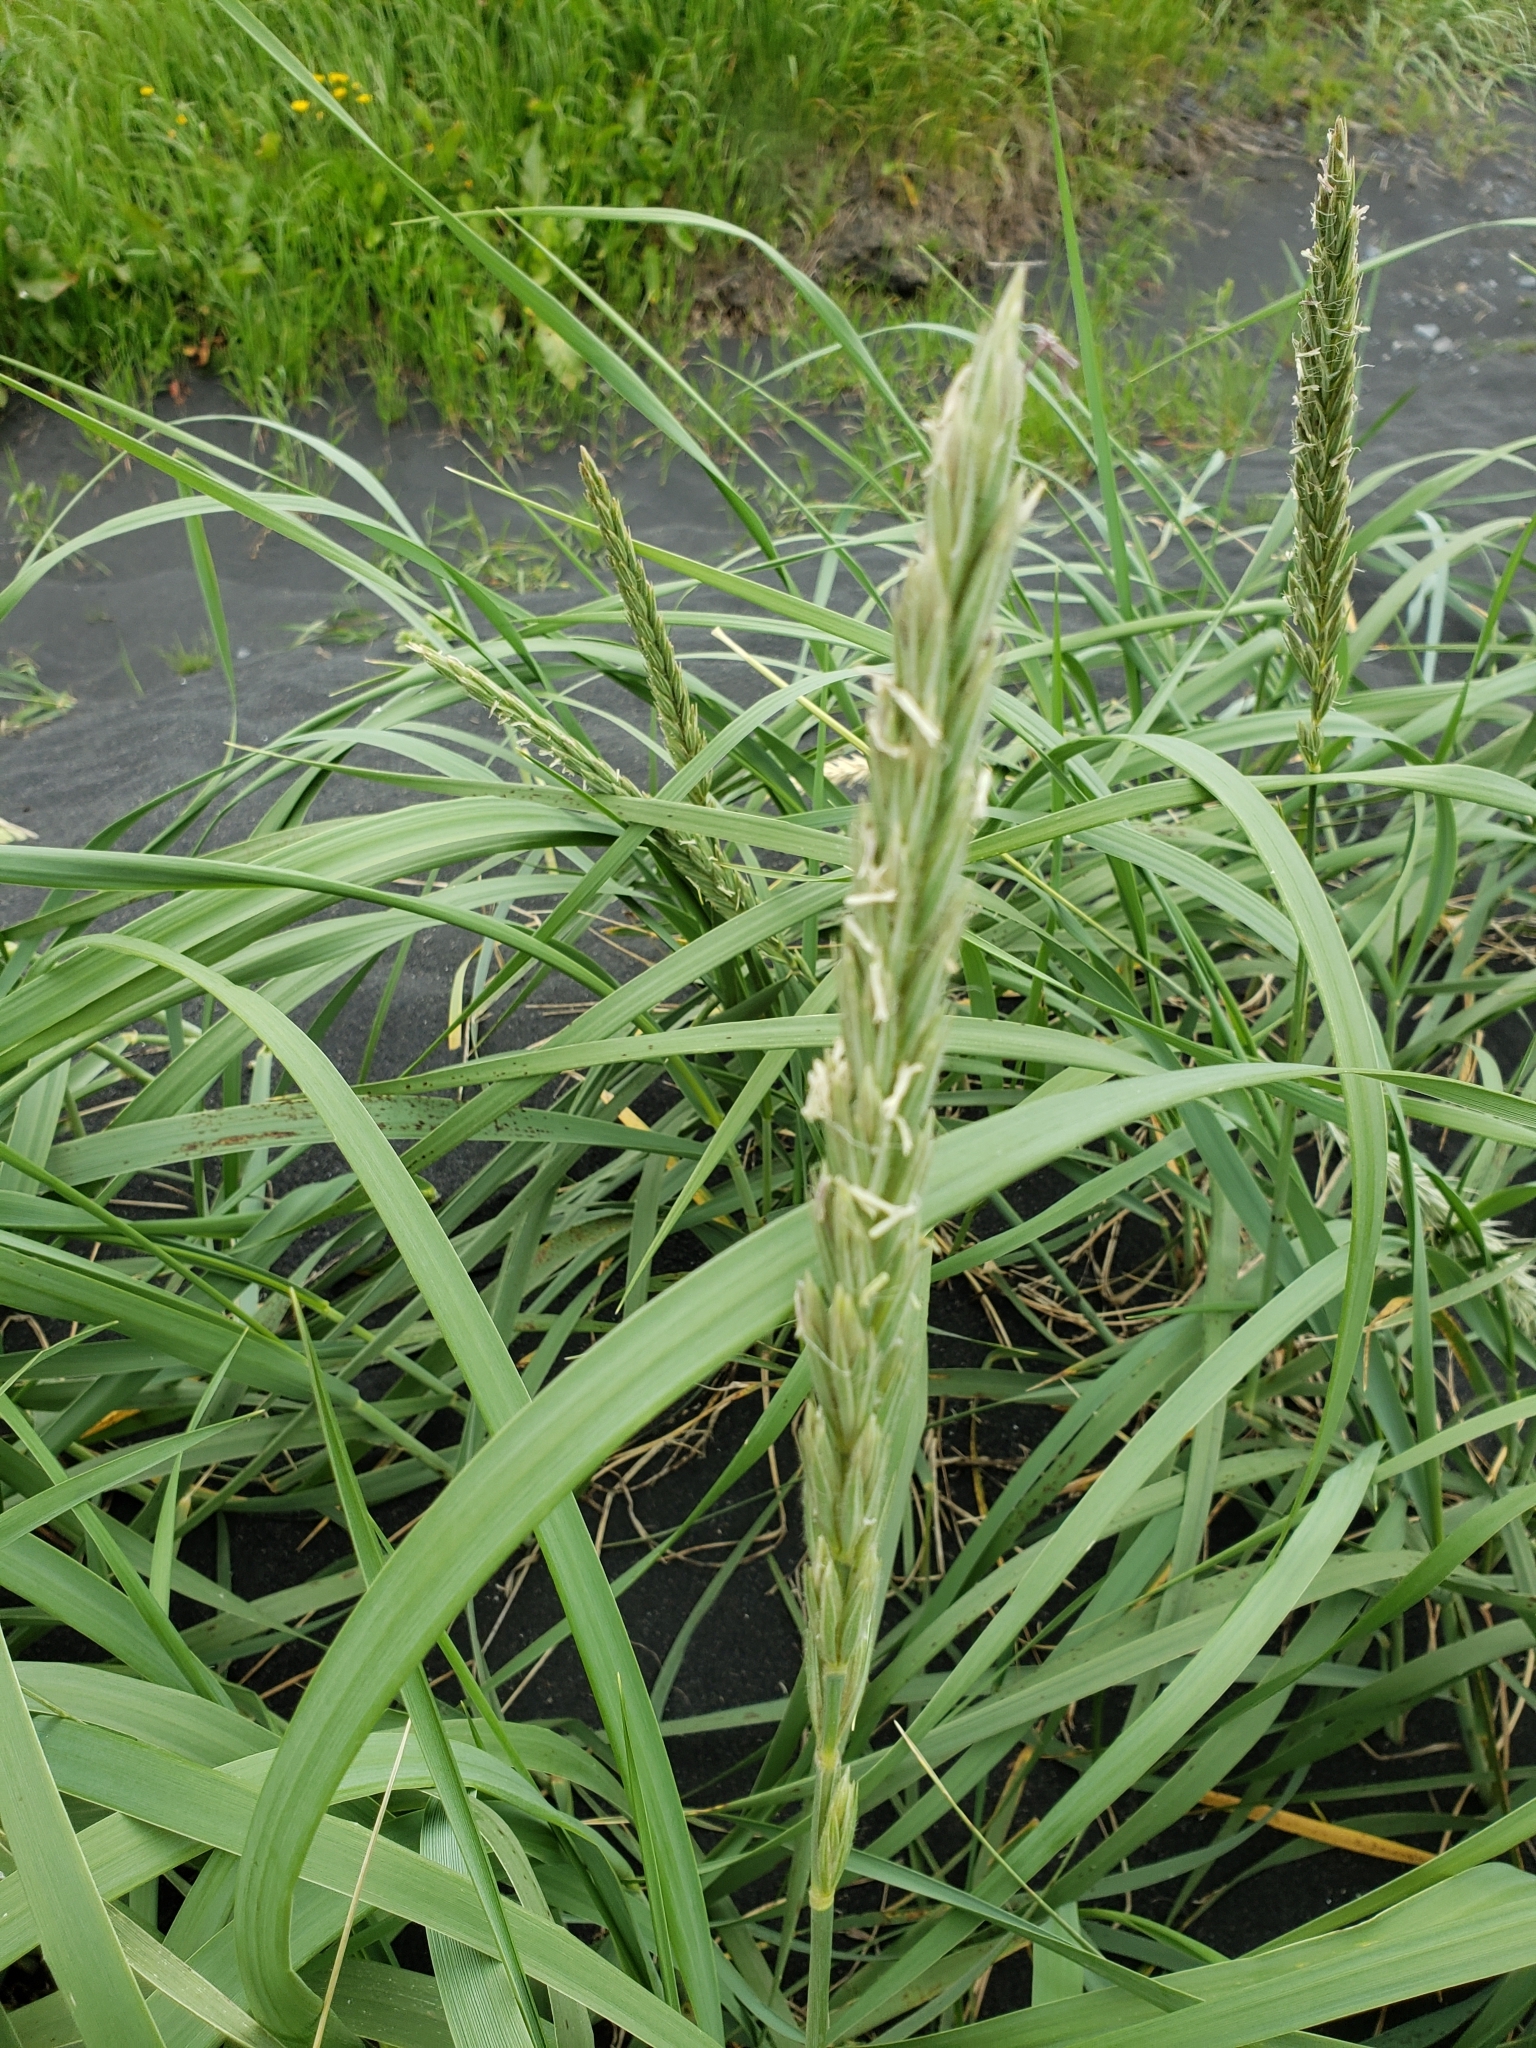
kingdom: Plantae
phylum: Tracheophyta
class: Liliopsida
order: Poales
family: Poaceae
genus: Leymus
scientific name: Leymus arenarius
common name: Lyme-grass
